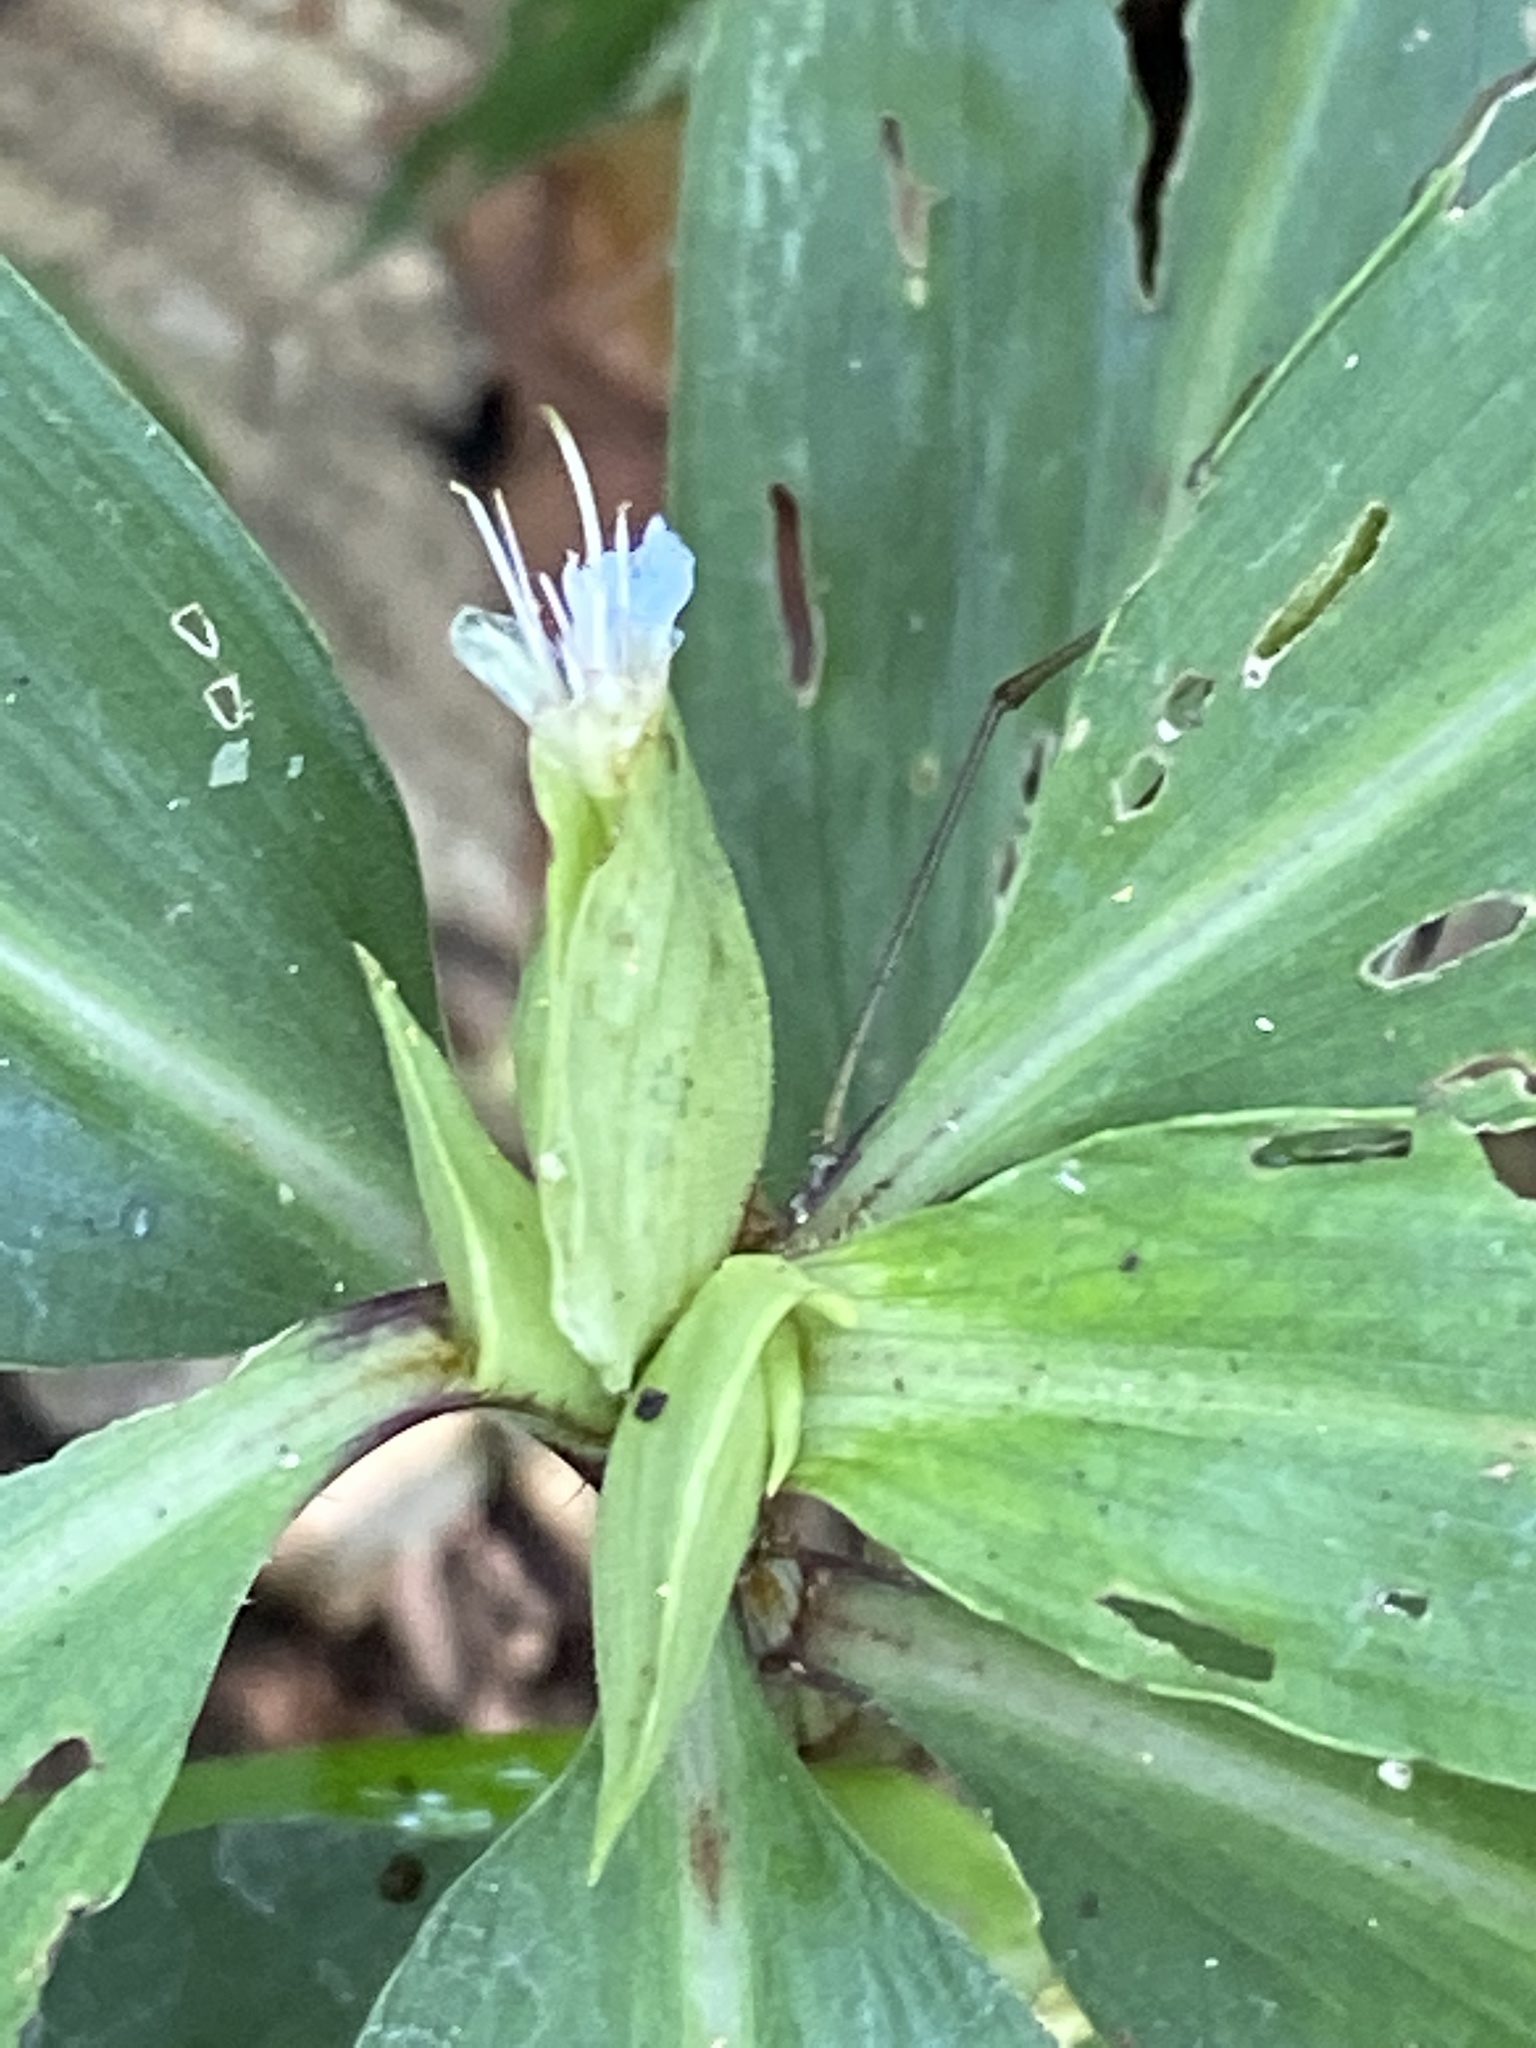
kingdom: Plantae
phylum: Tracheophyta
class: Liliopsida
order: Commelinales
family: Commelinaceae
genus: Commelina
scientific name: Commelina virginica
